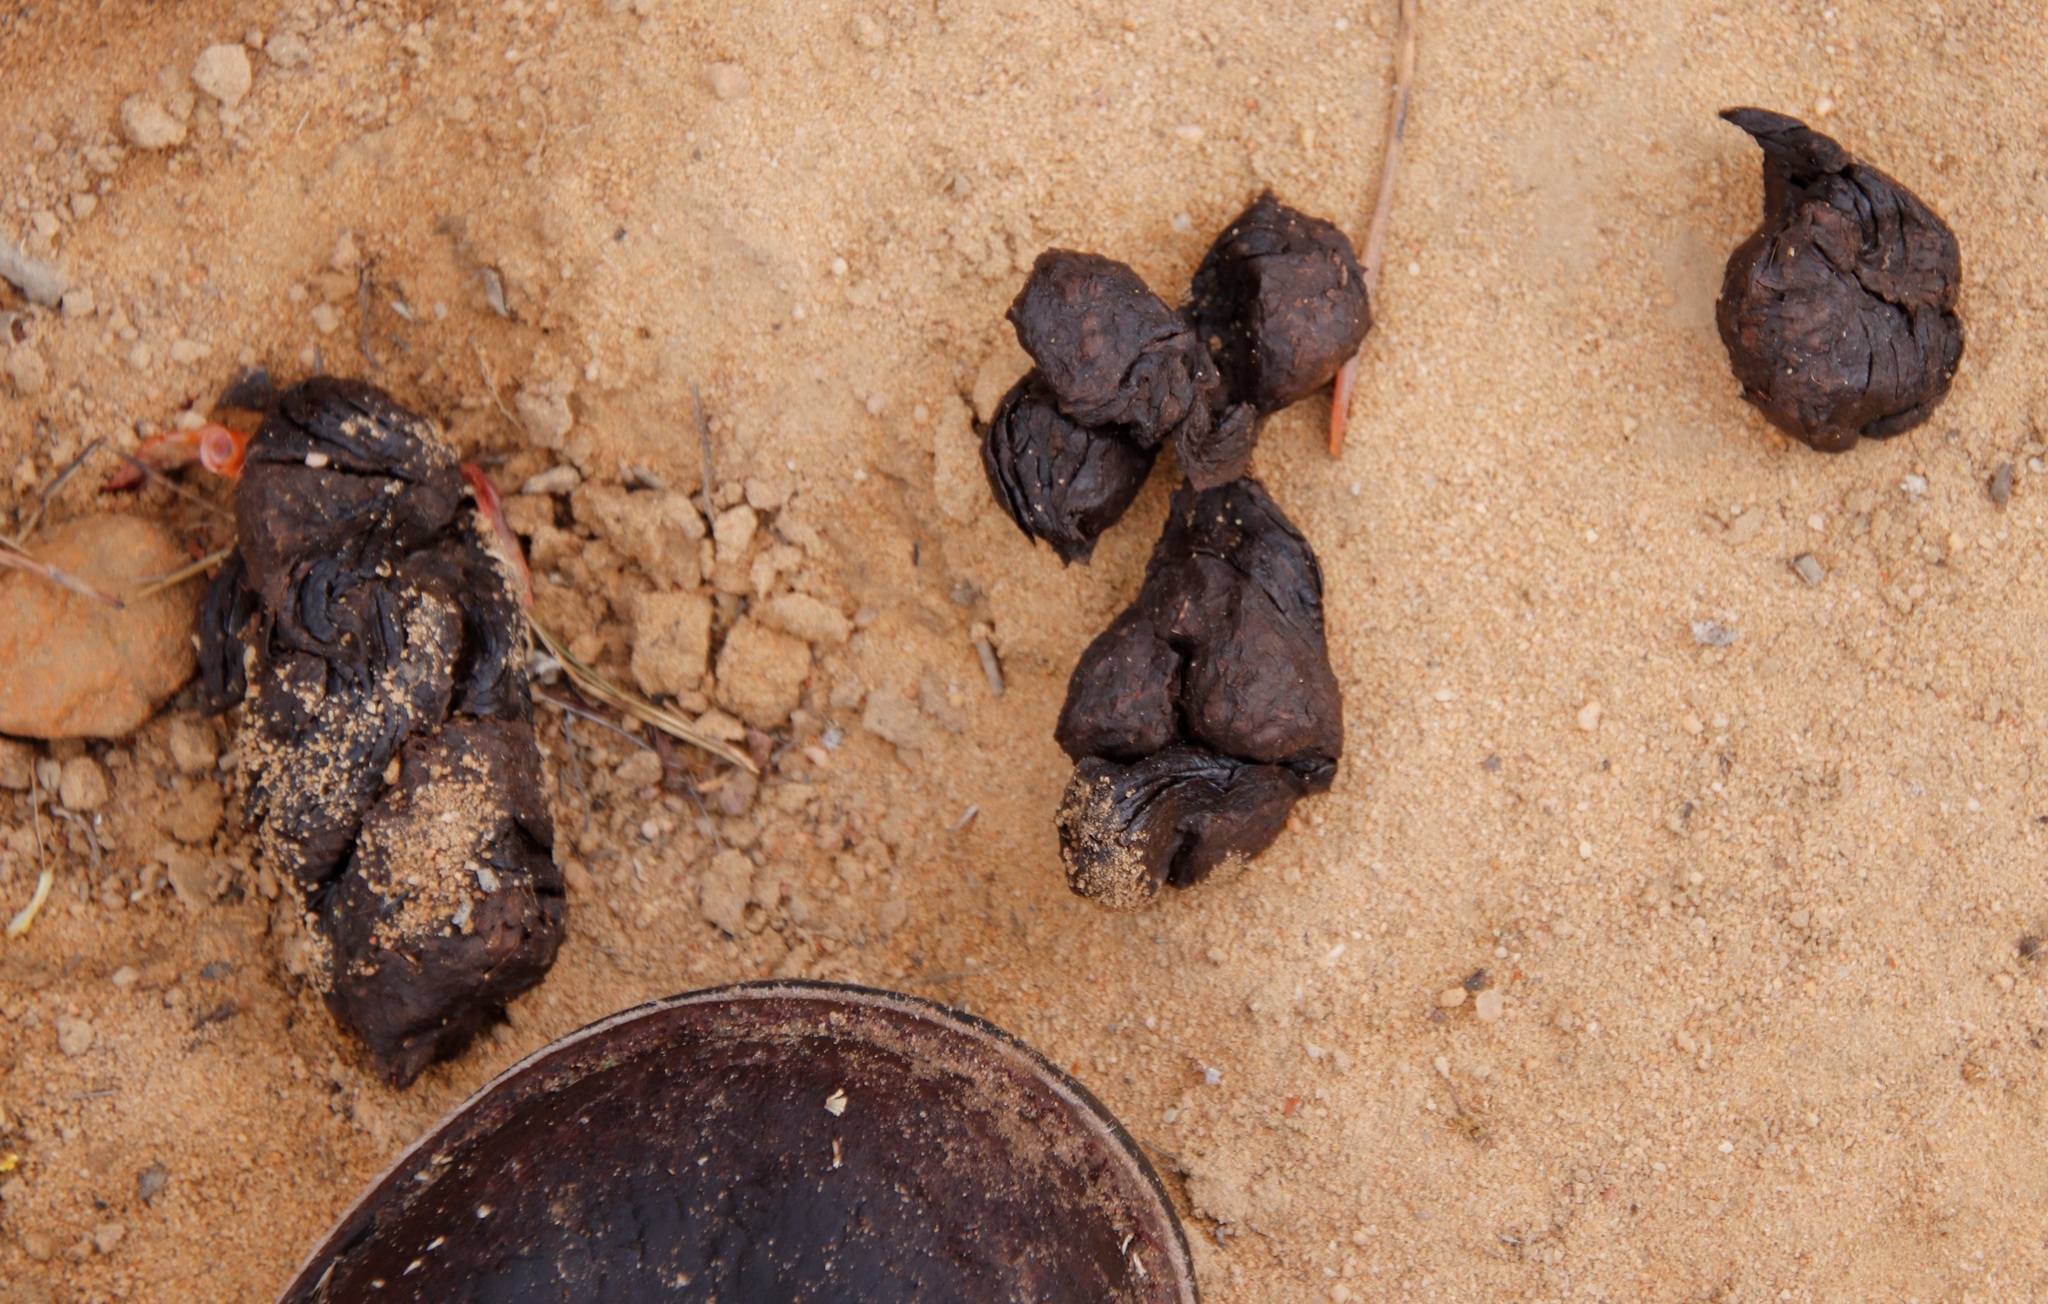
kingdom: Animalia
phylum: Chordata
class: Mammalia
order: Rodentia
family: Hystricidae
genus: Hystrix
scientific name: Hystrix africaeaustralis
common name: Cape porcupine
